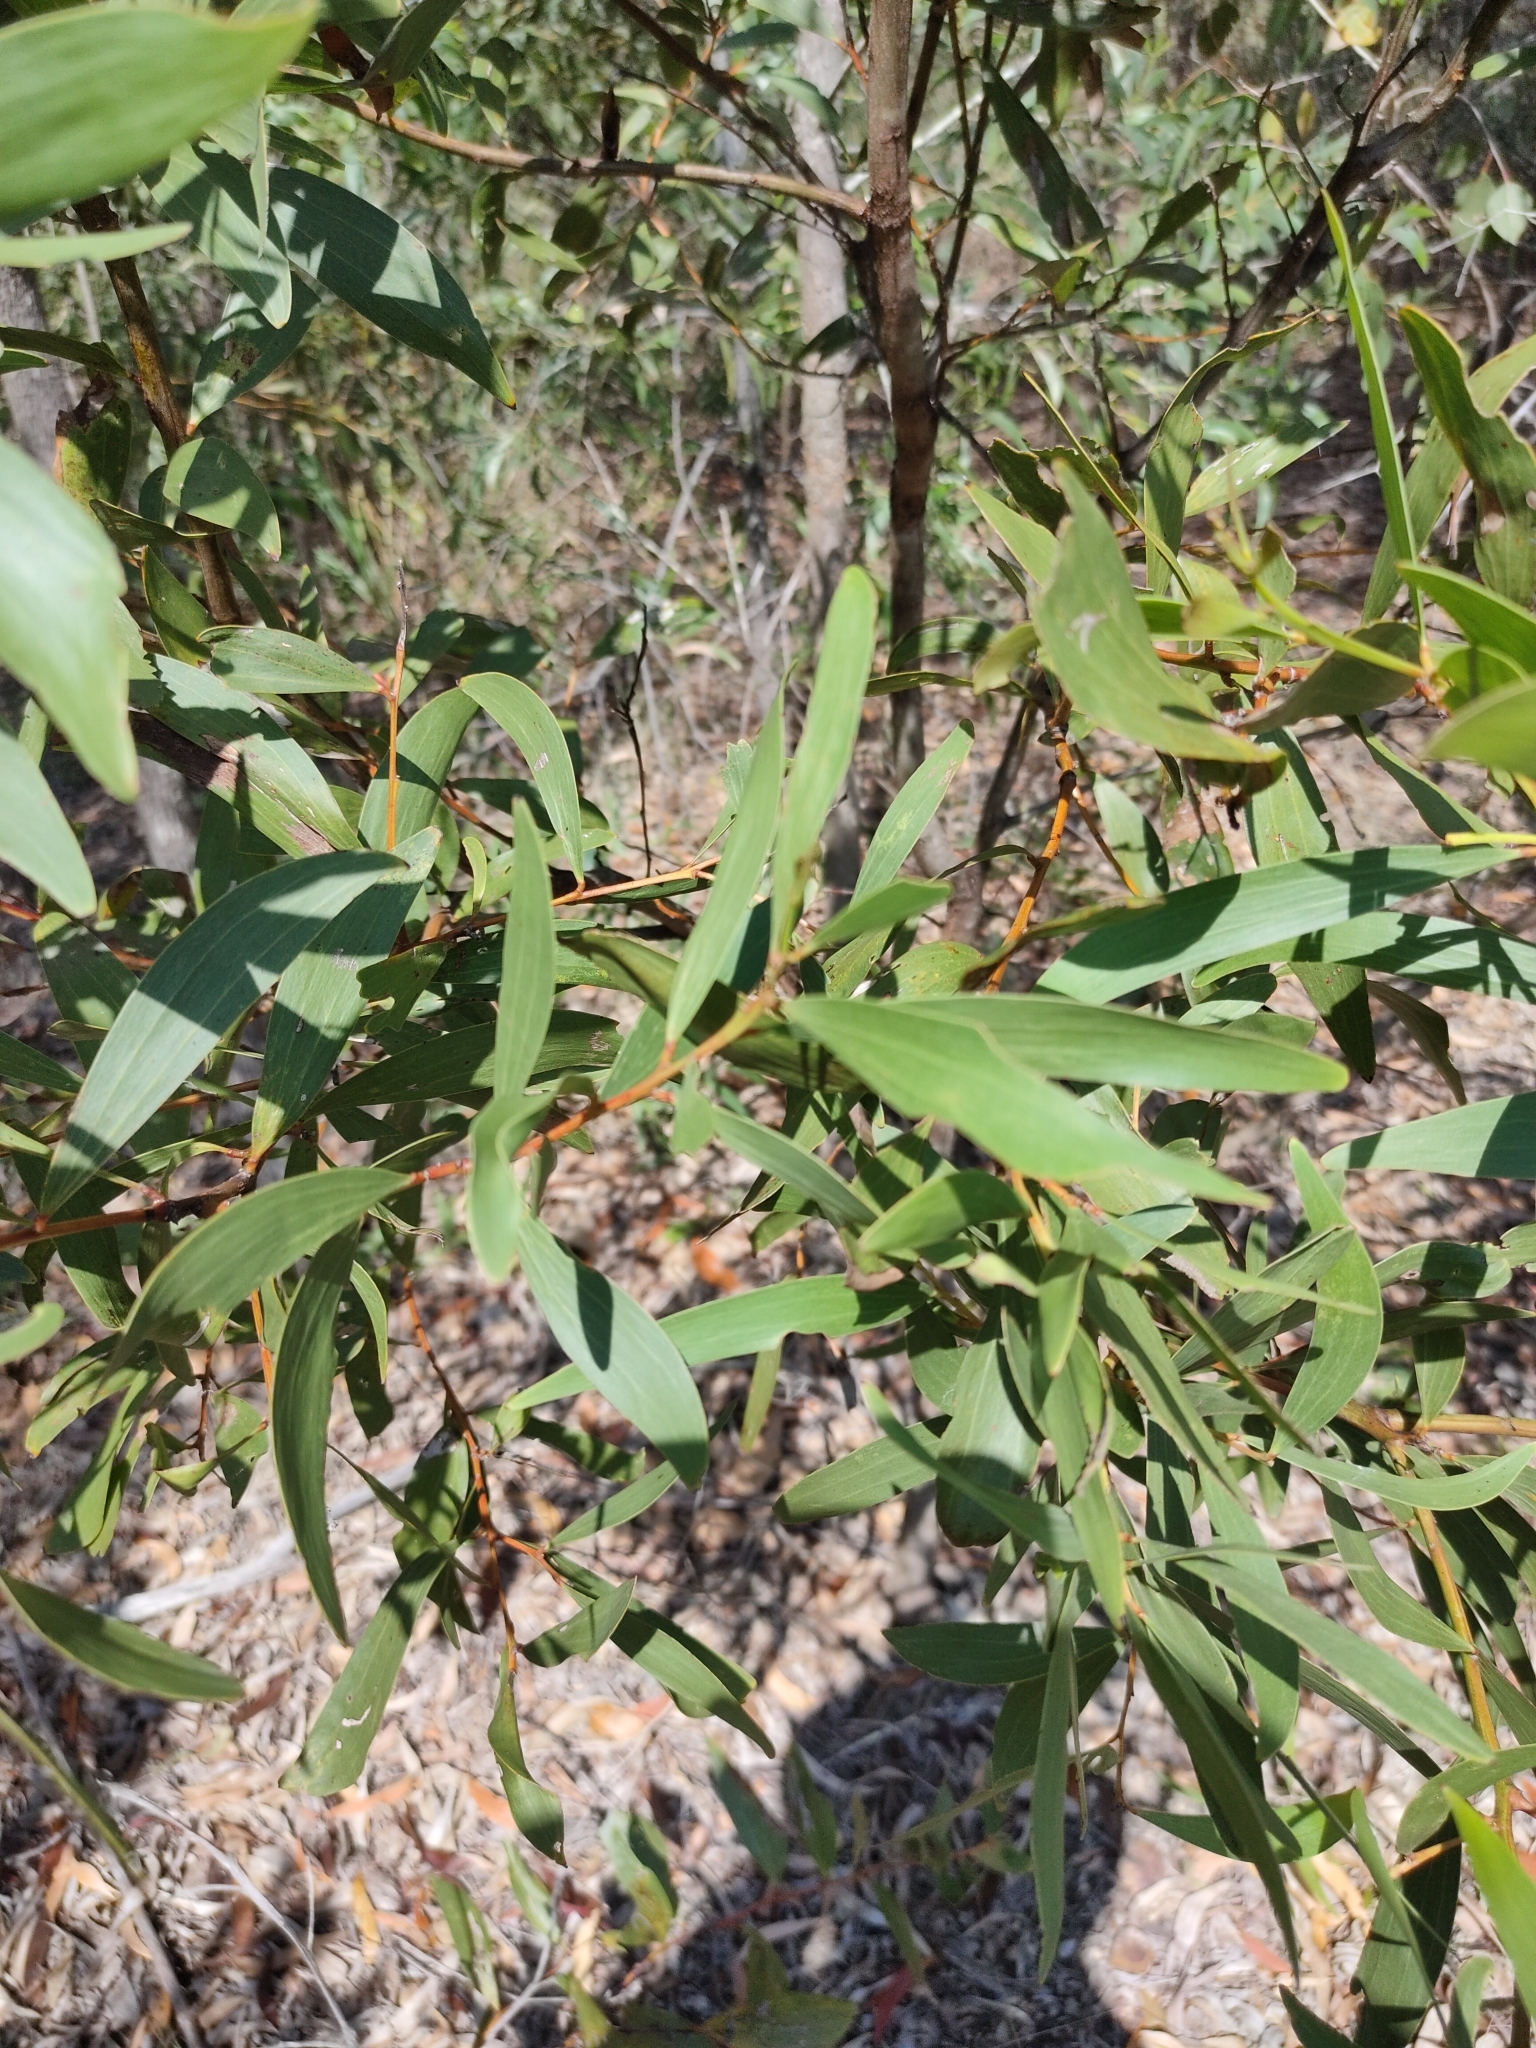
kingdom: Plantae
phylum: Tracheophyta
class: Magnoliopsida
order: Fabales
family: Fabaceae
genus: Acacia
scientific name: Acacia leiocalyx
